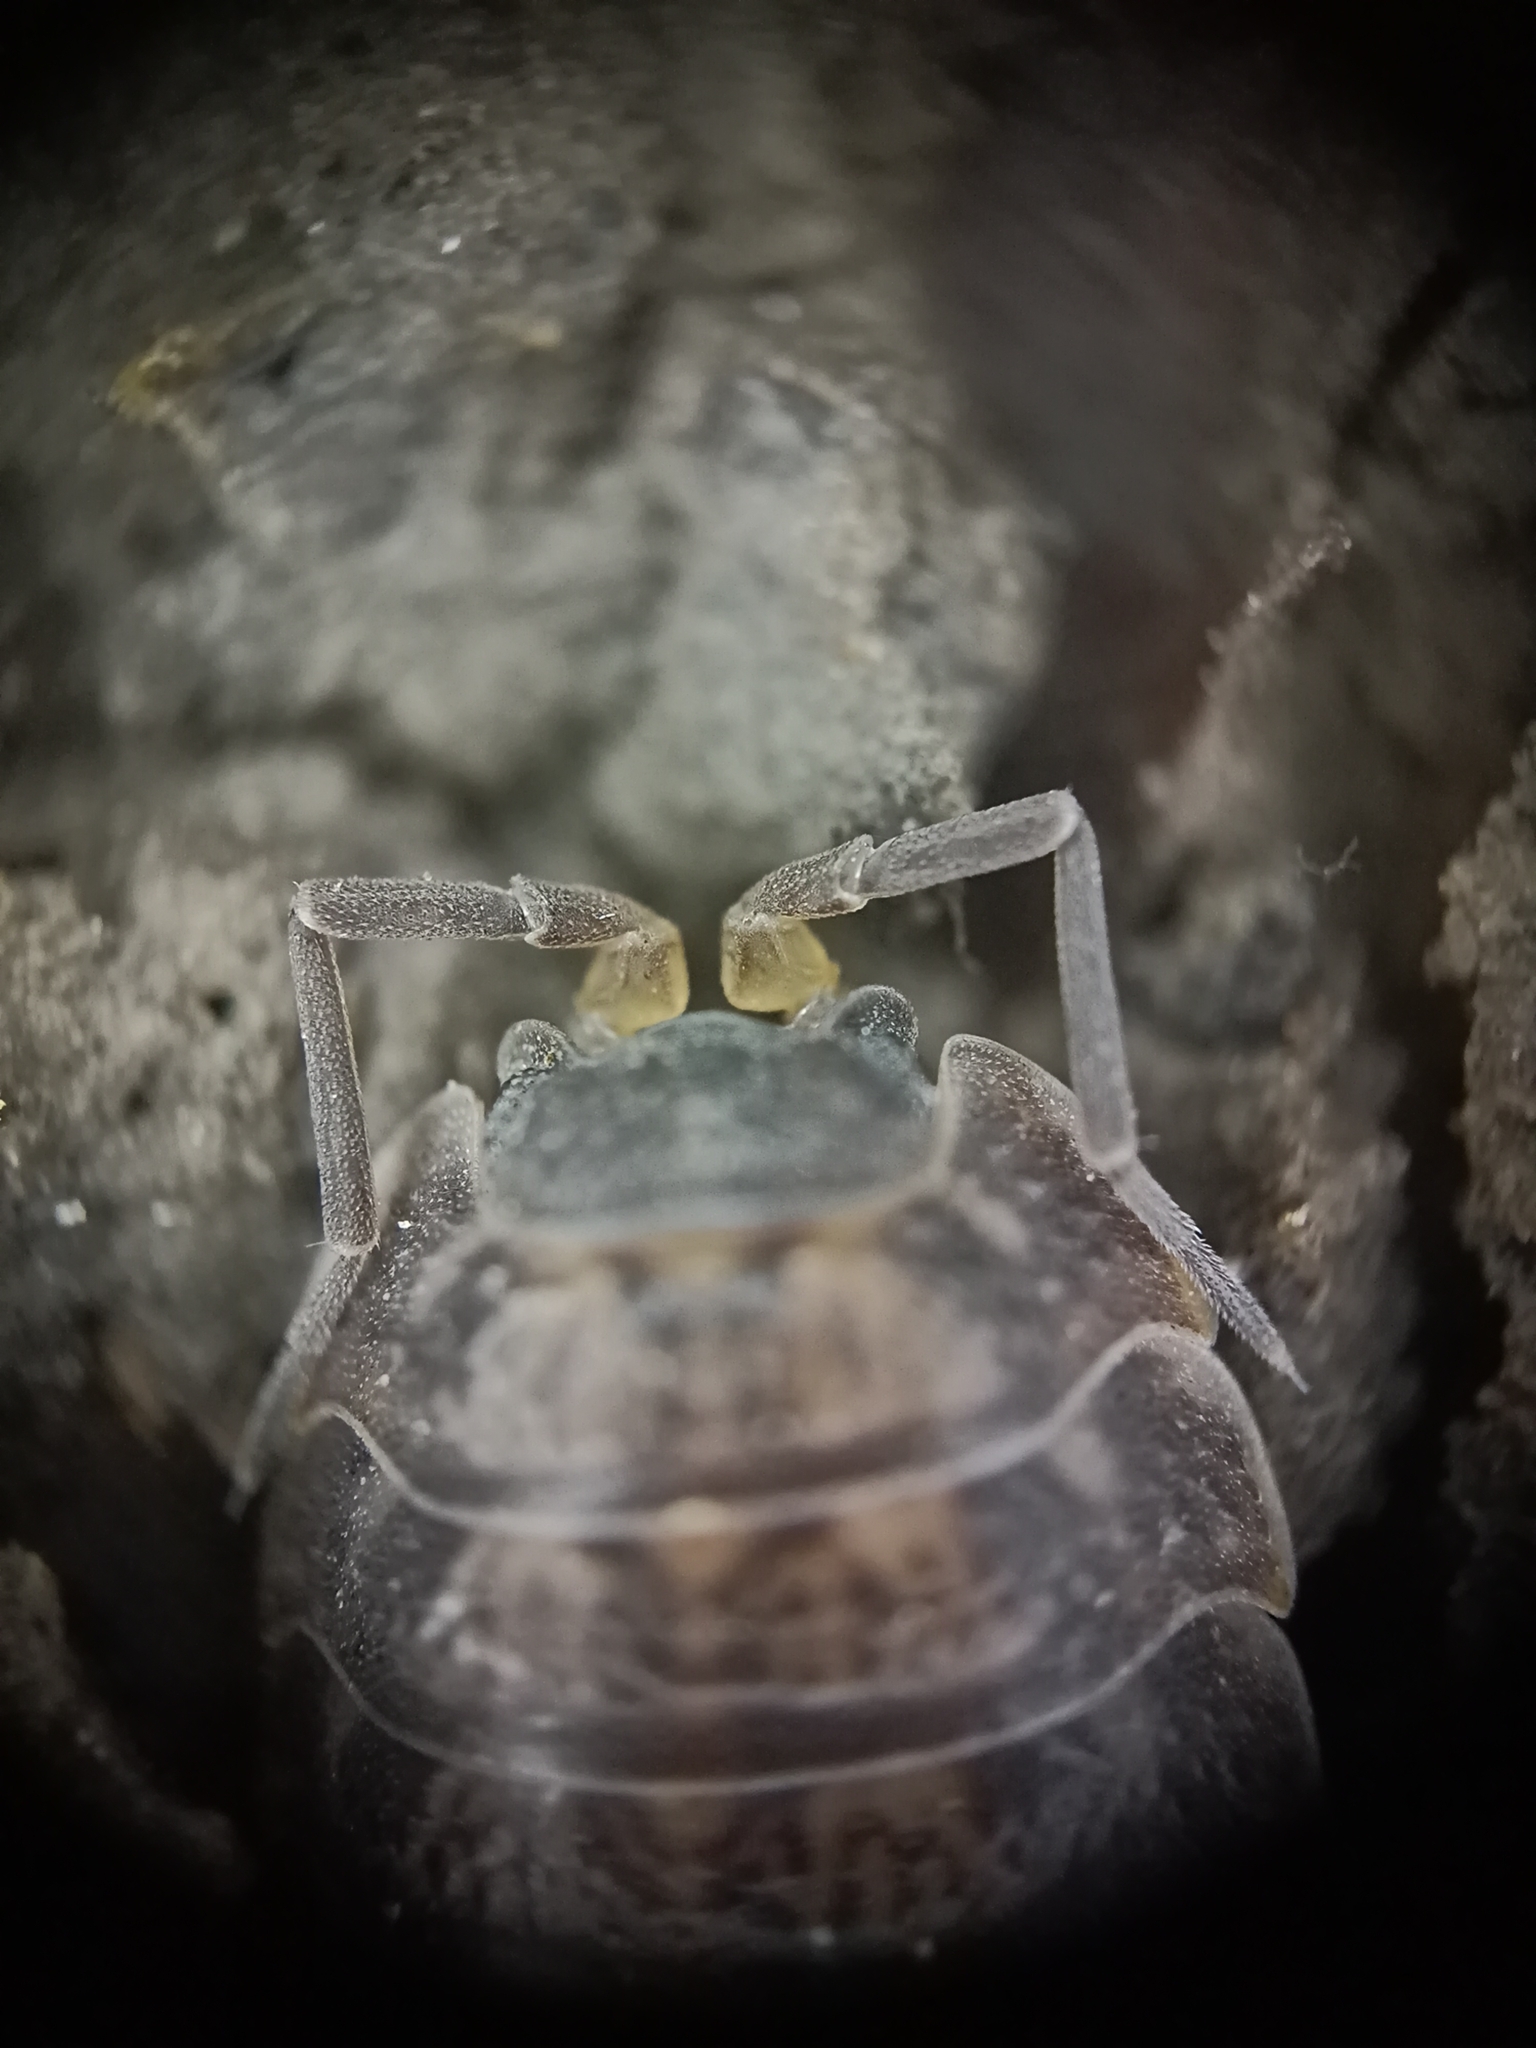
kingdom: Animalia
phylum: Arthropoda
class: Malacostraca
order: Isopoda
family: Trachelipodidae
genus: Trachelipus
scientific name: Trachelipus rathkii
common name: Isopod
